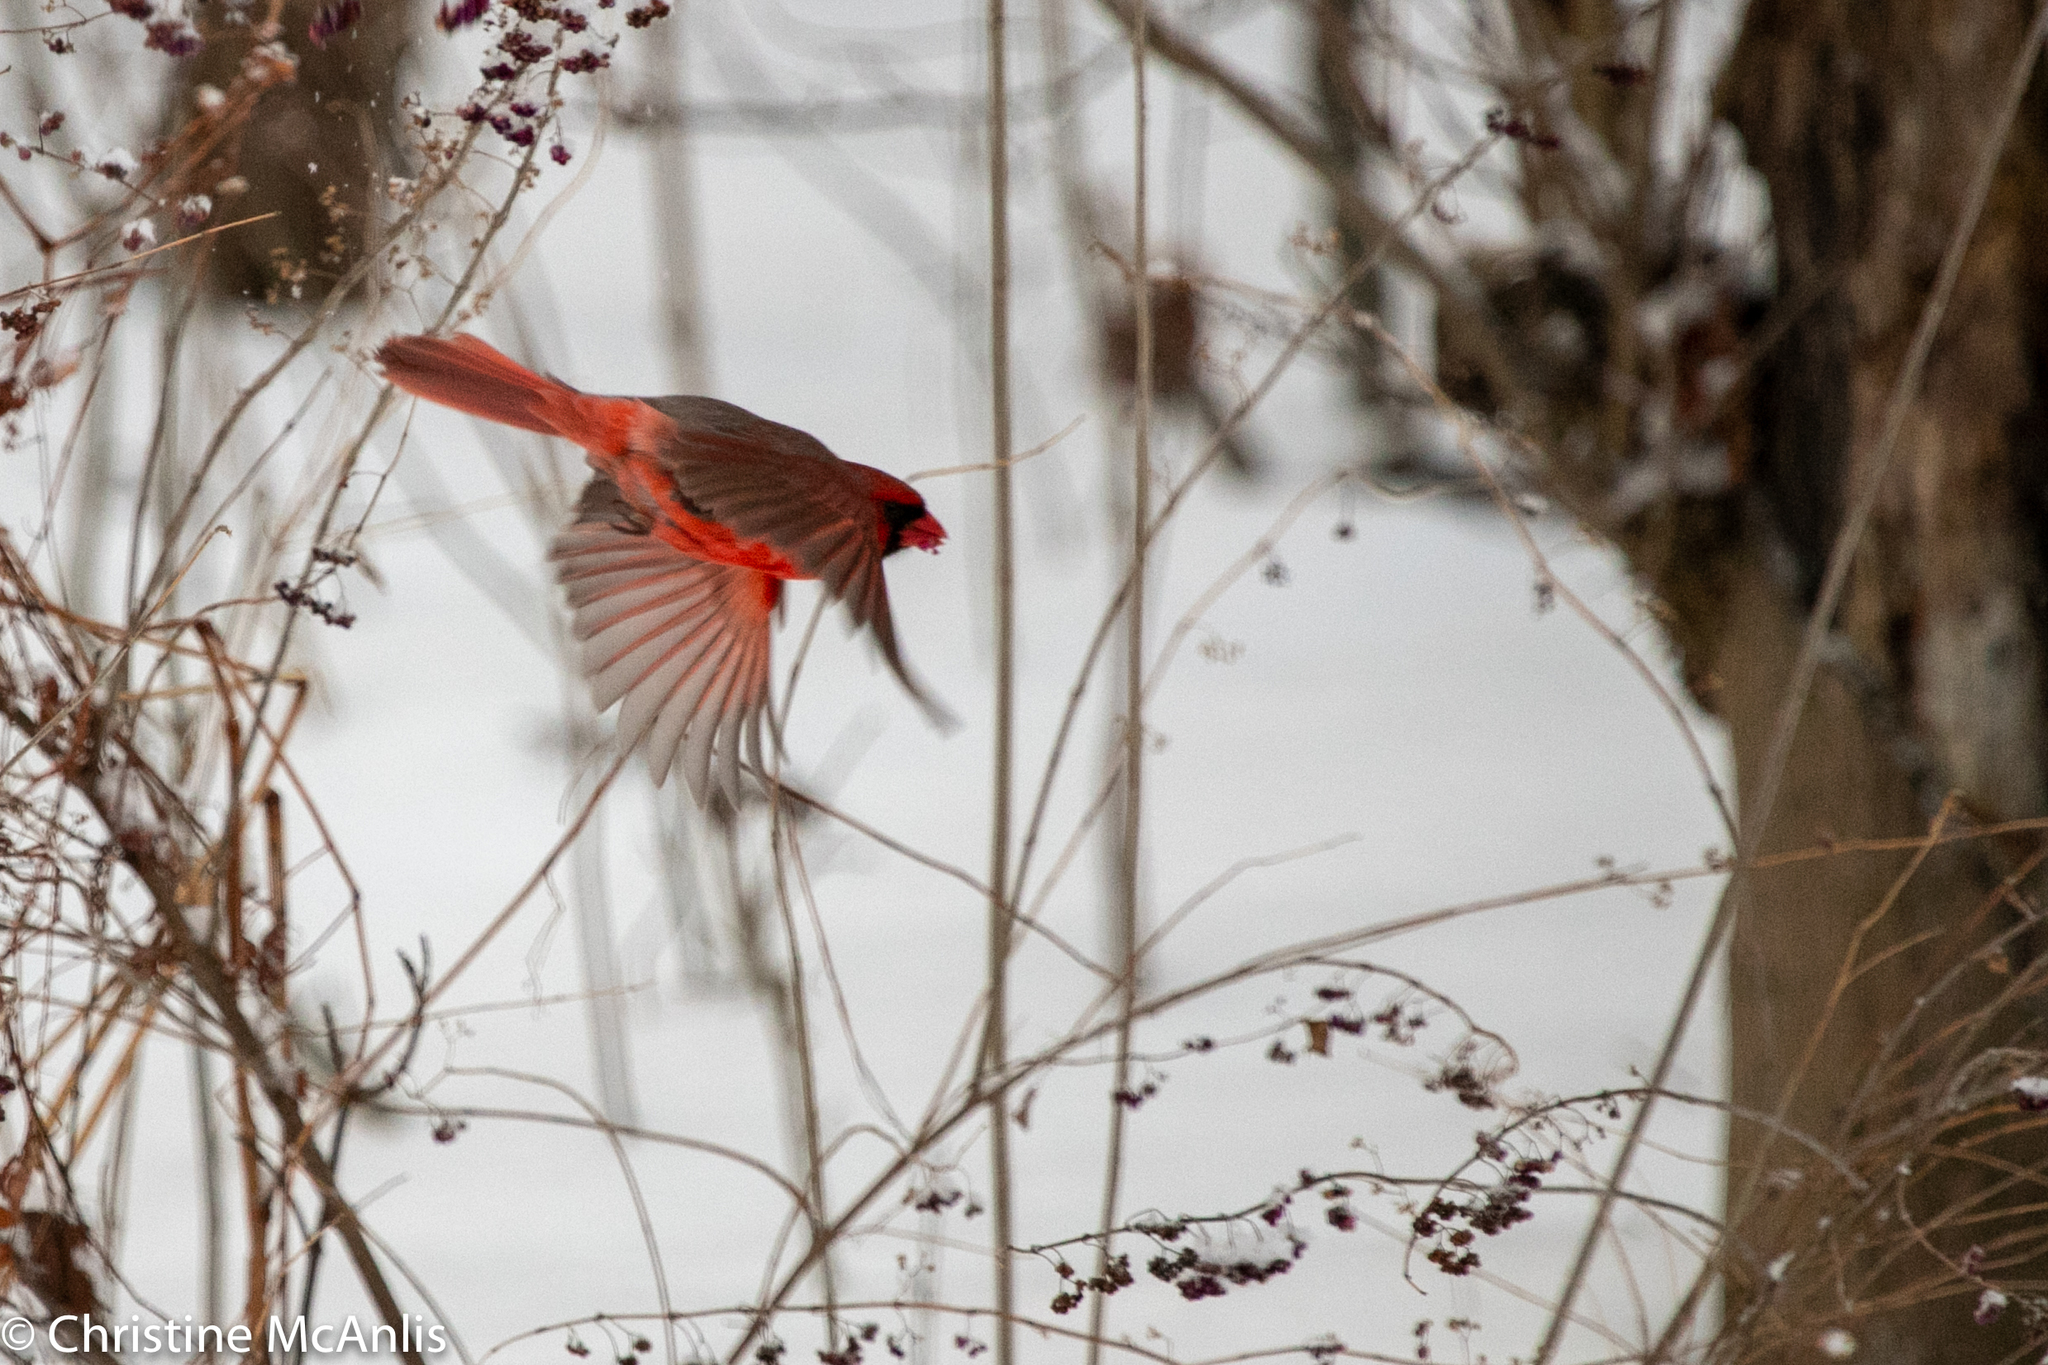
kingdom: Animalia
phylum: Chordata
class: Aves
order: Passeriformes
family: Cardinalidae
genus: Cardinalis
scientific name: Cardinalis cardinalis
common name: Northern cardinal
